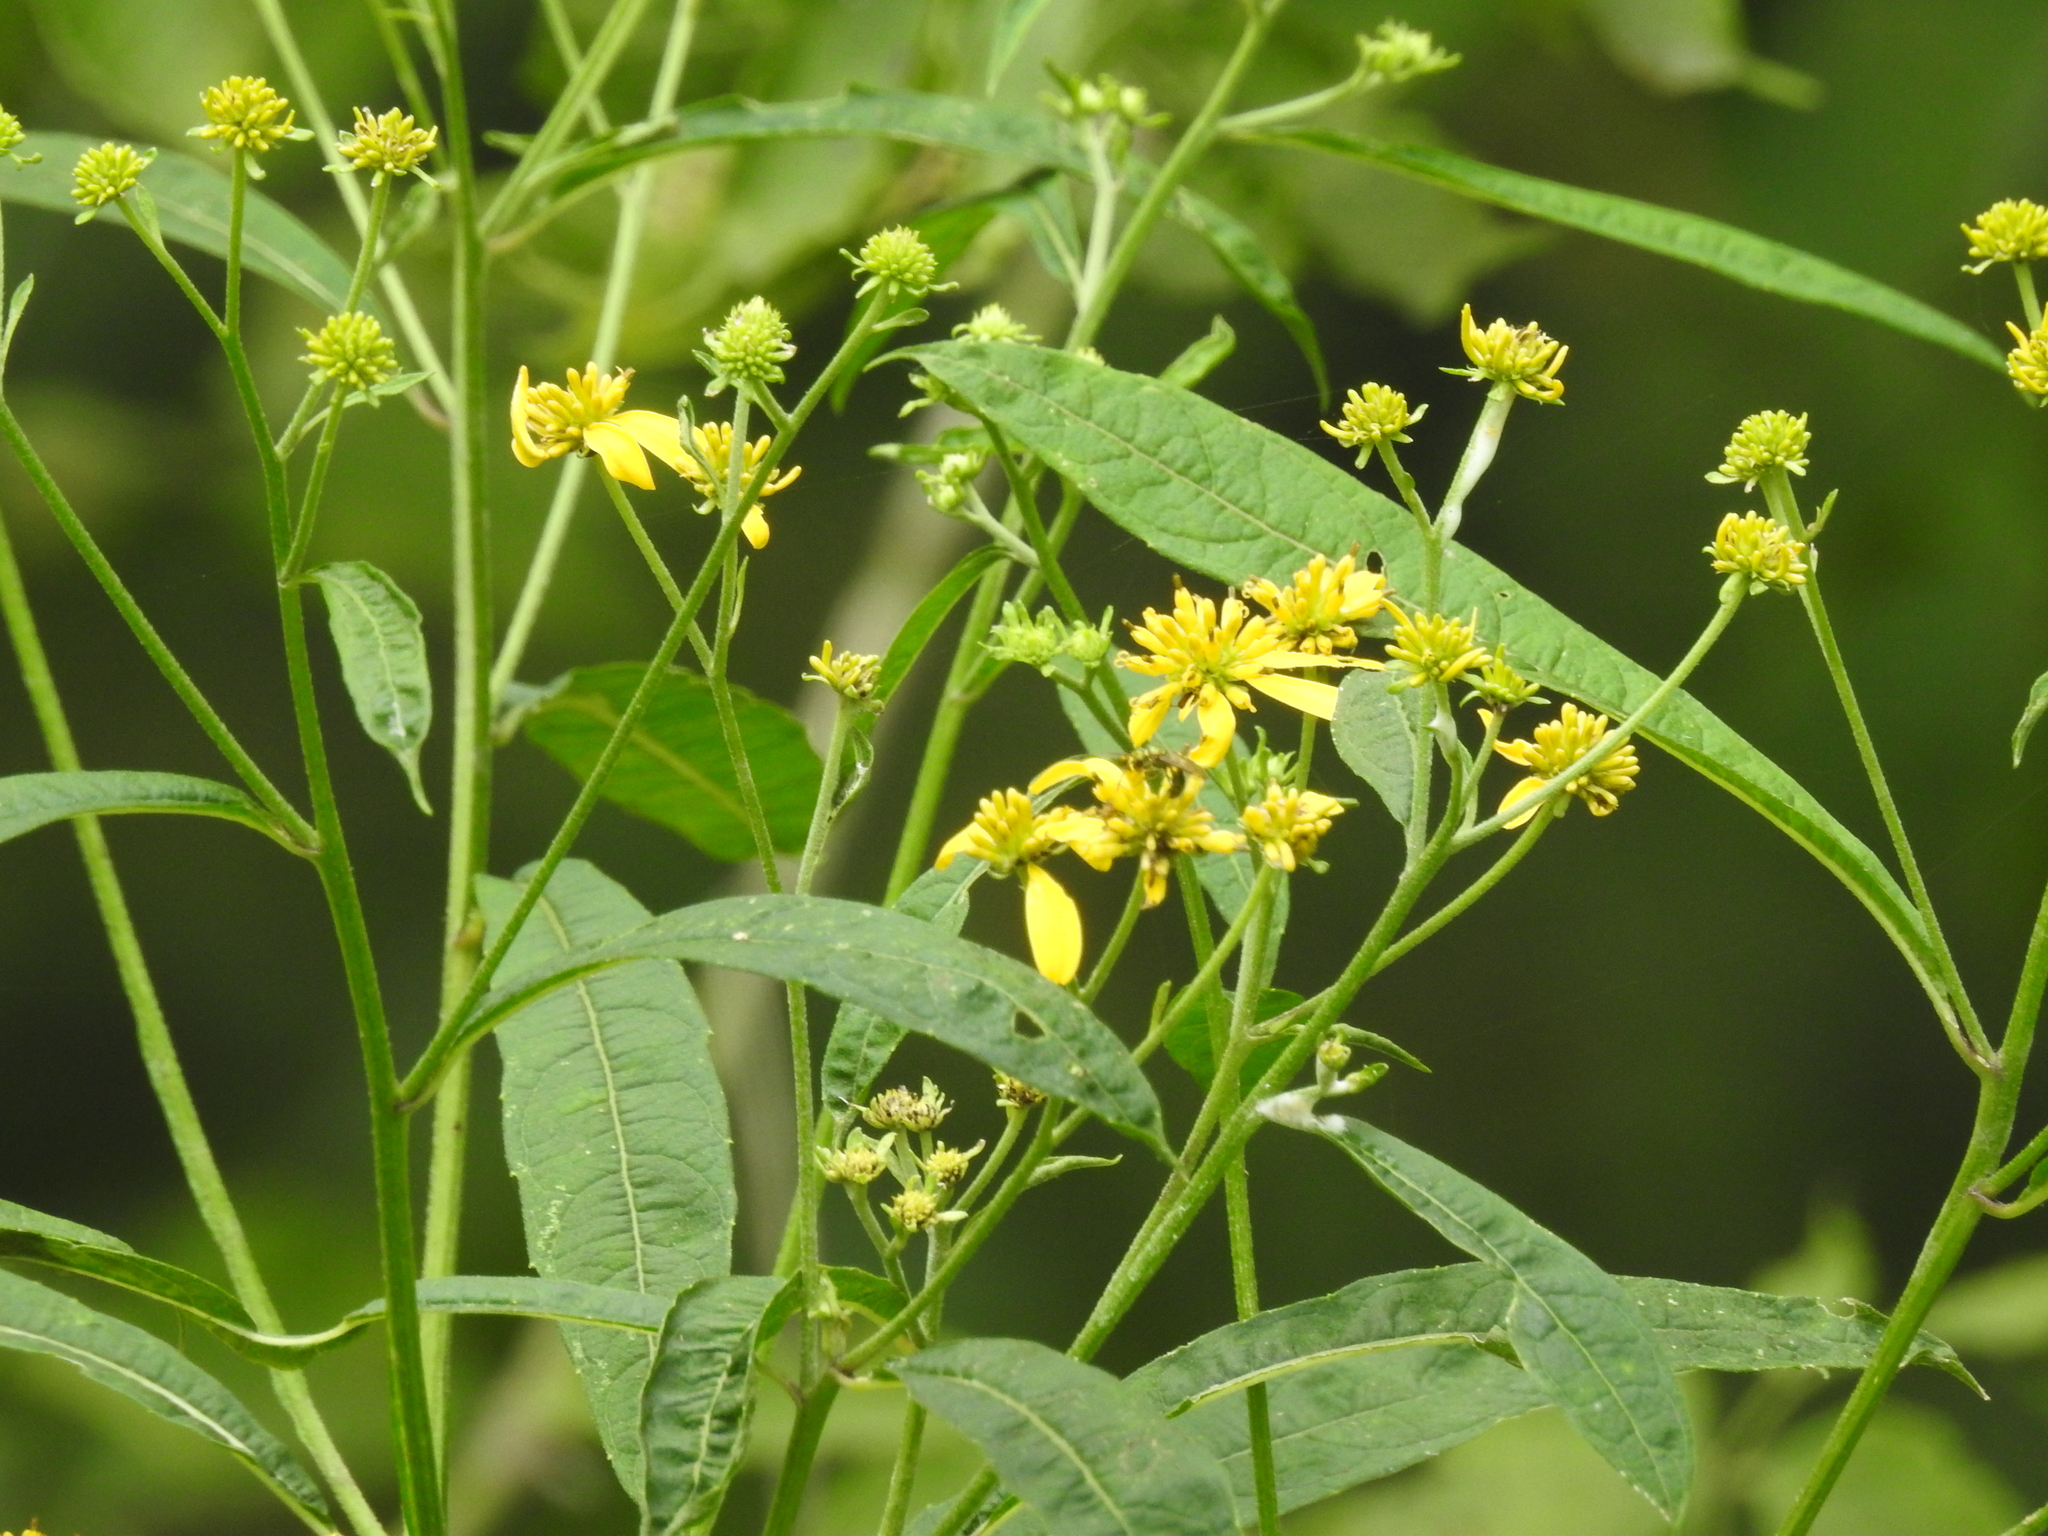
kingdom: Plantae
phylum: Tracheophyta
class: Magnoliopsida
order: Asterales
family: Asteraceae
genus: Verbesina
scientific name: Verbesina alternifolia
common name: Wingstem
